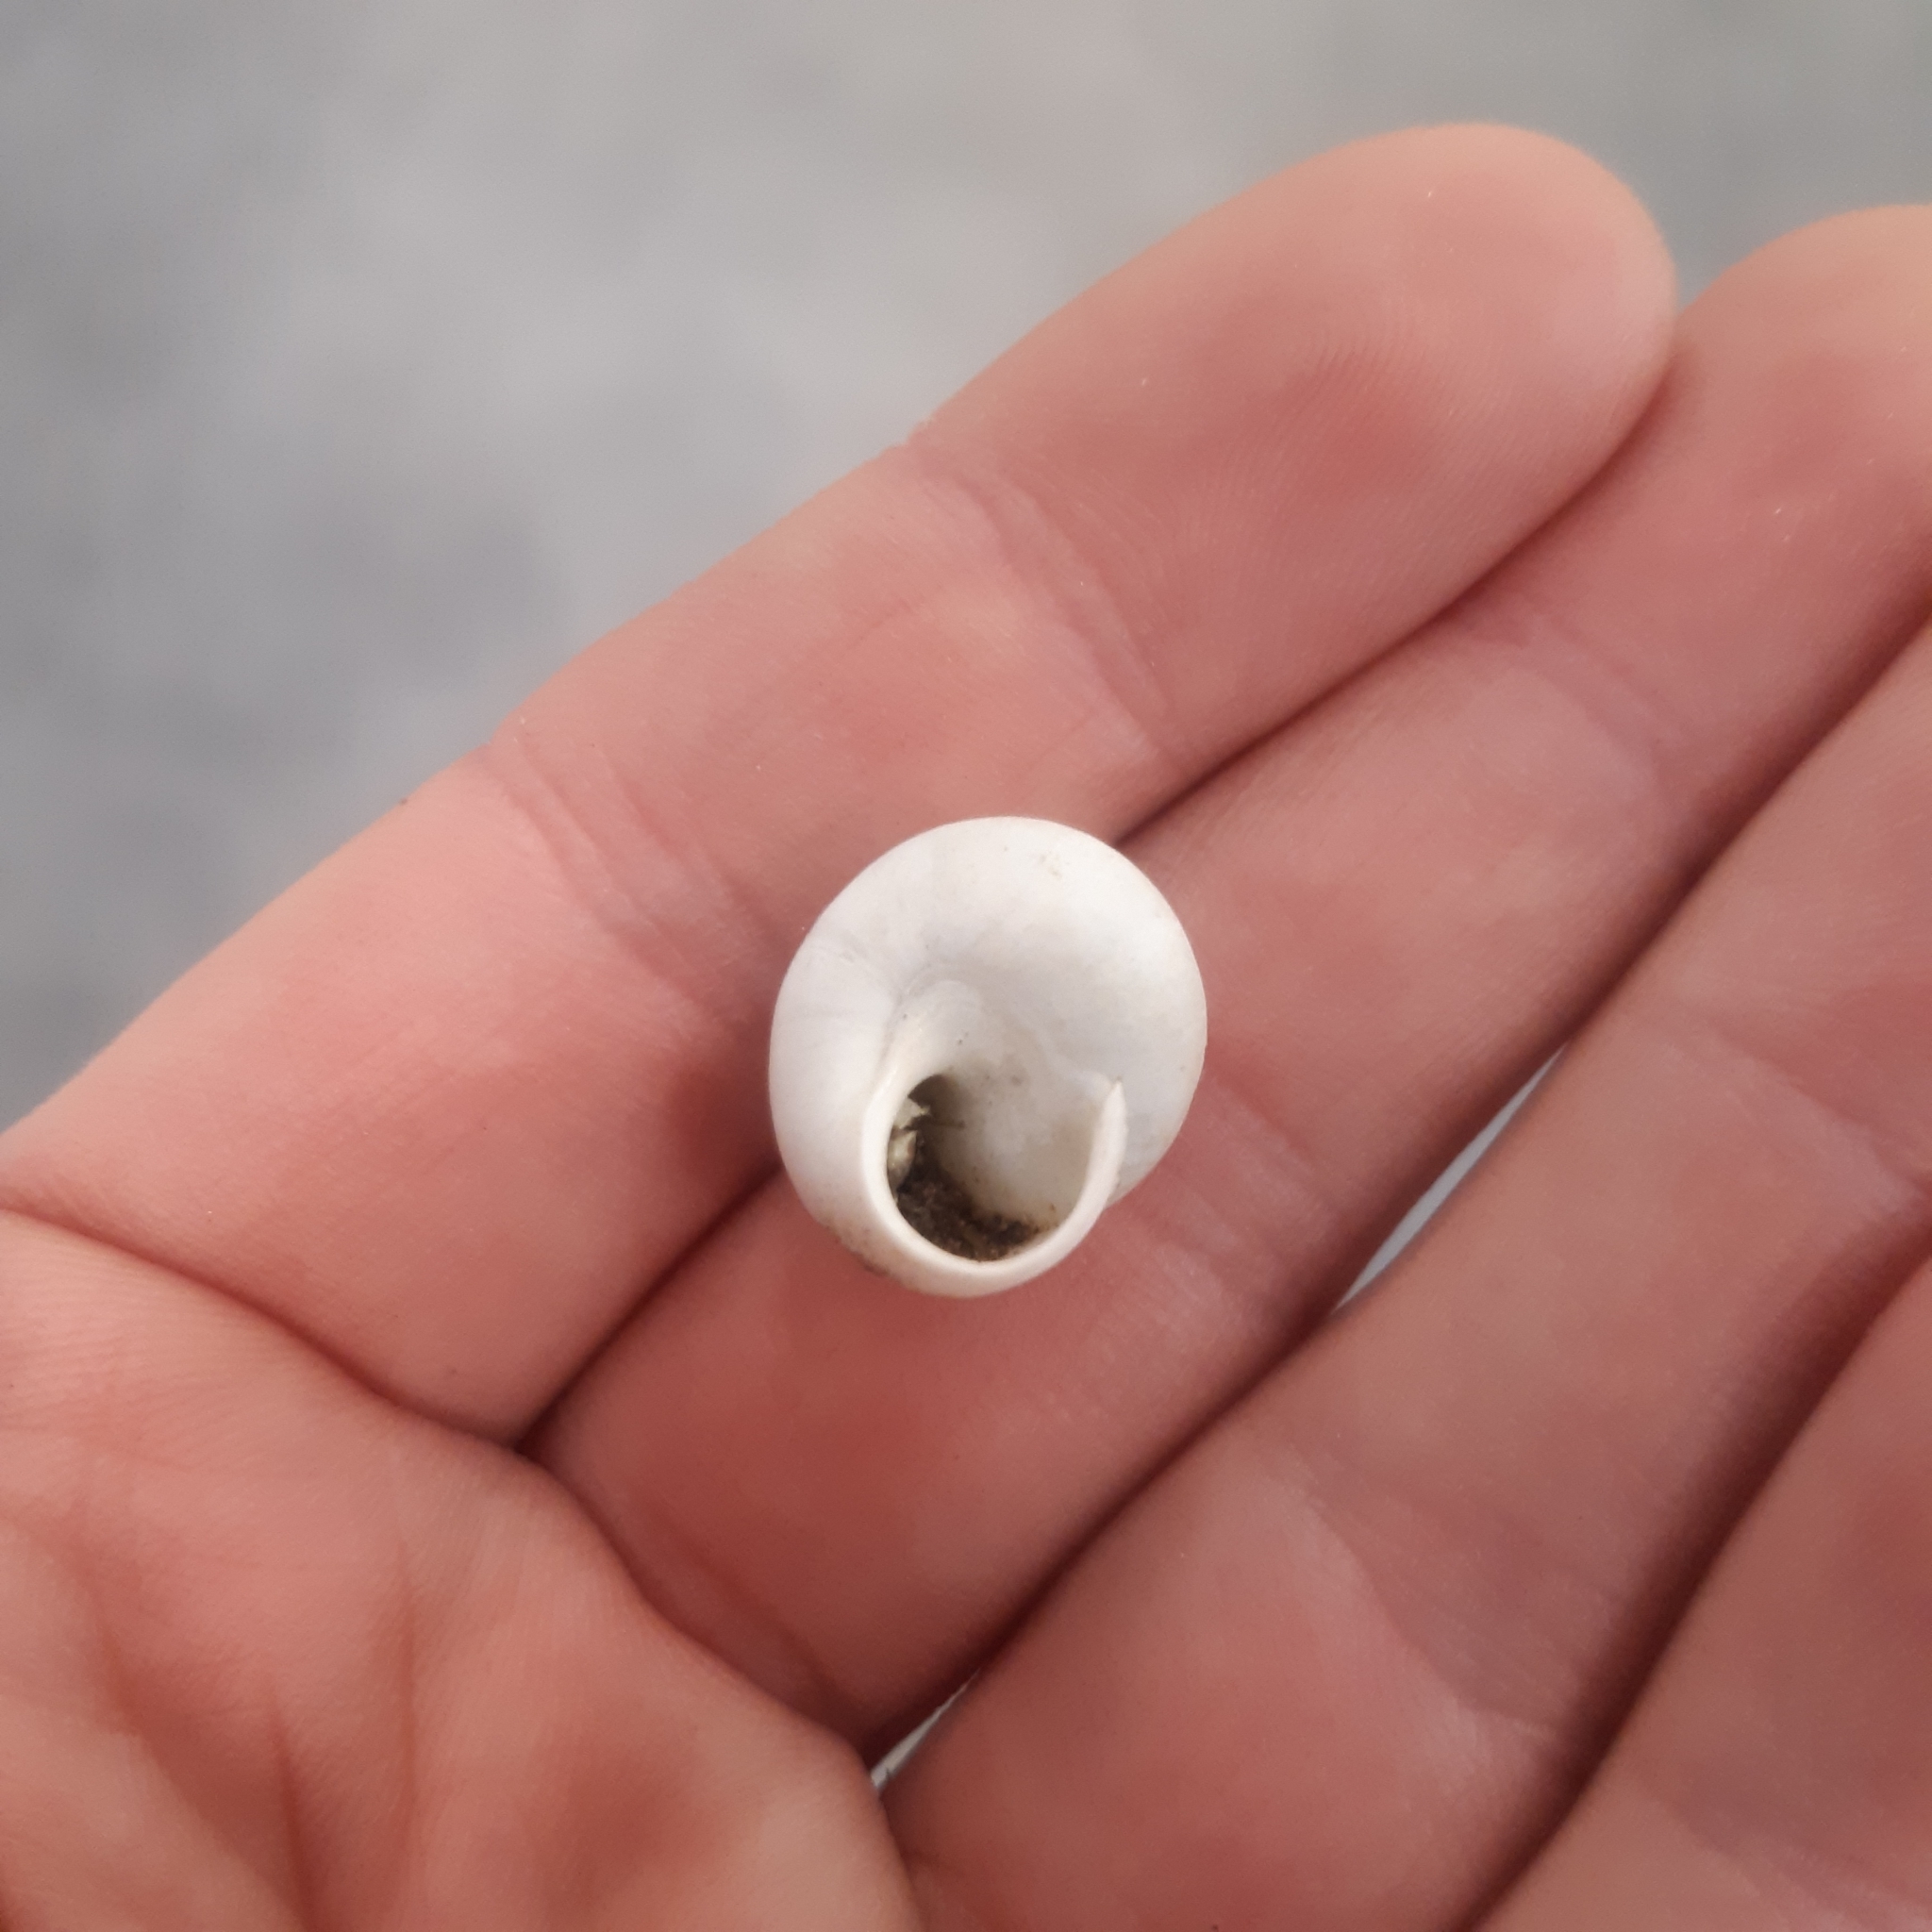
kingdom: Animalia
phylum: Mollusca
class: Gastropoda
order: Stylommatophora
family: Sphincterochilidae
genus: Sphincterochila
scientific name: Sphincterochila candidissima
